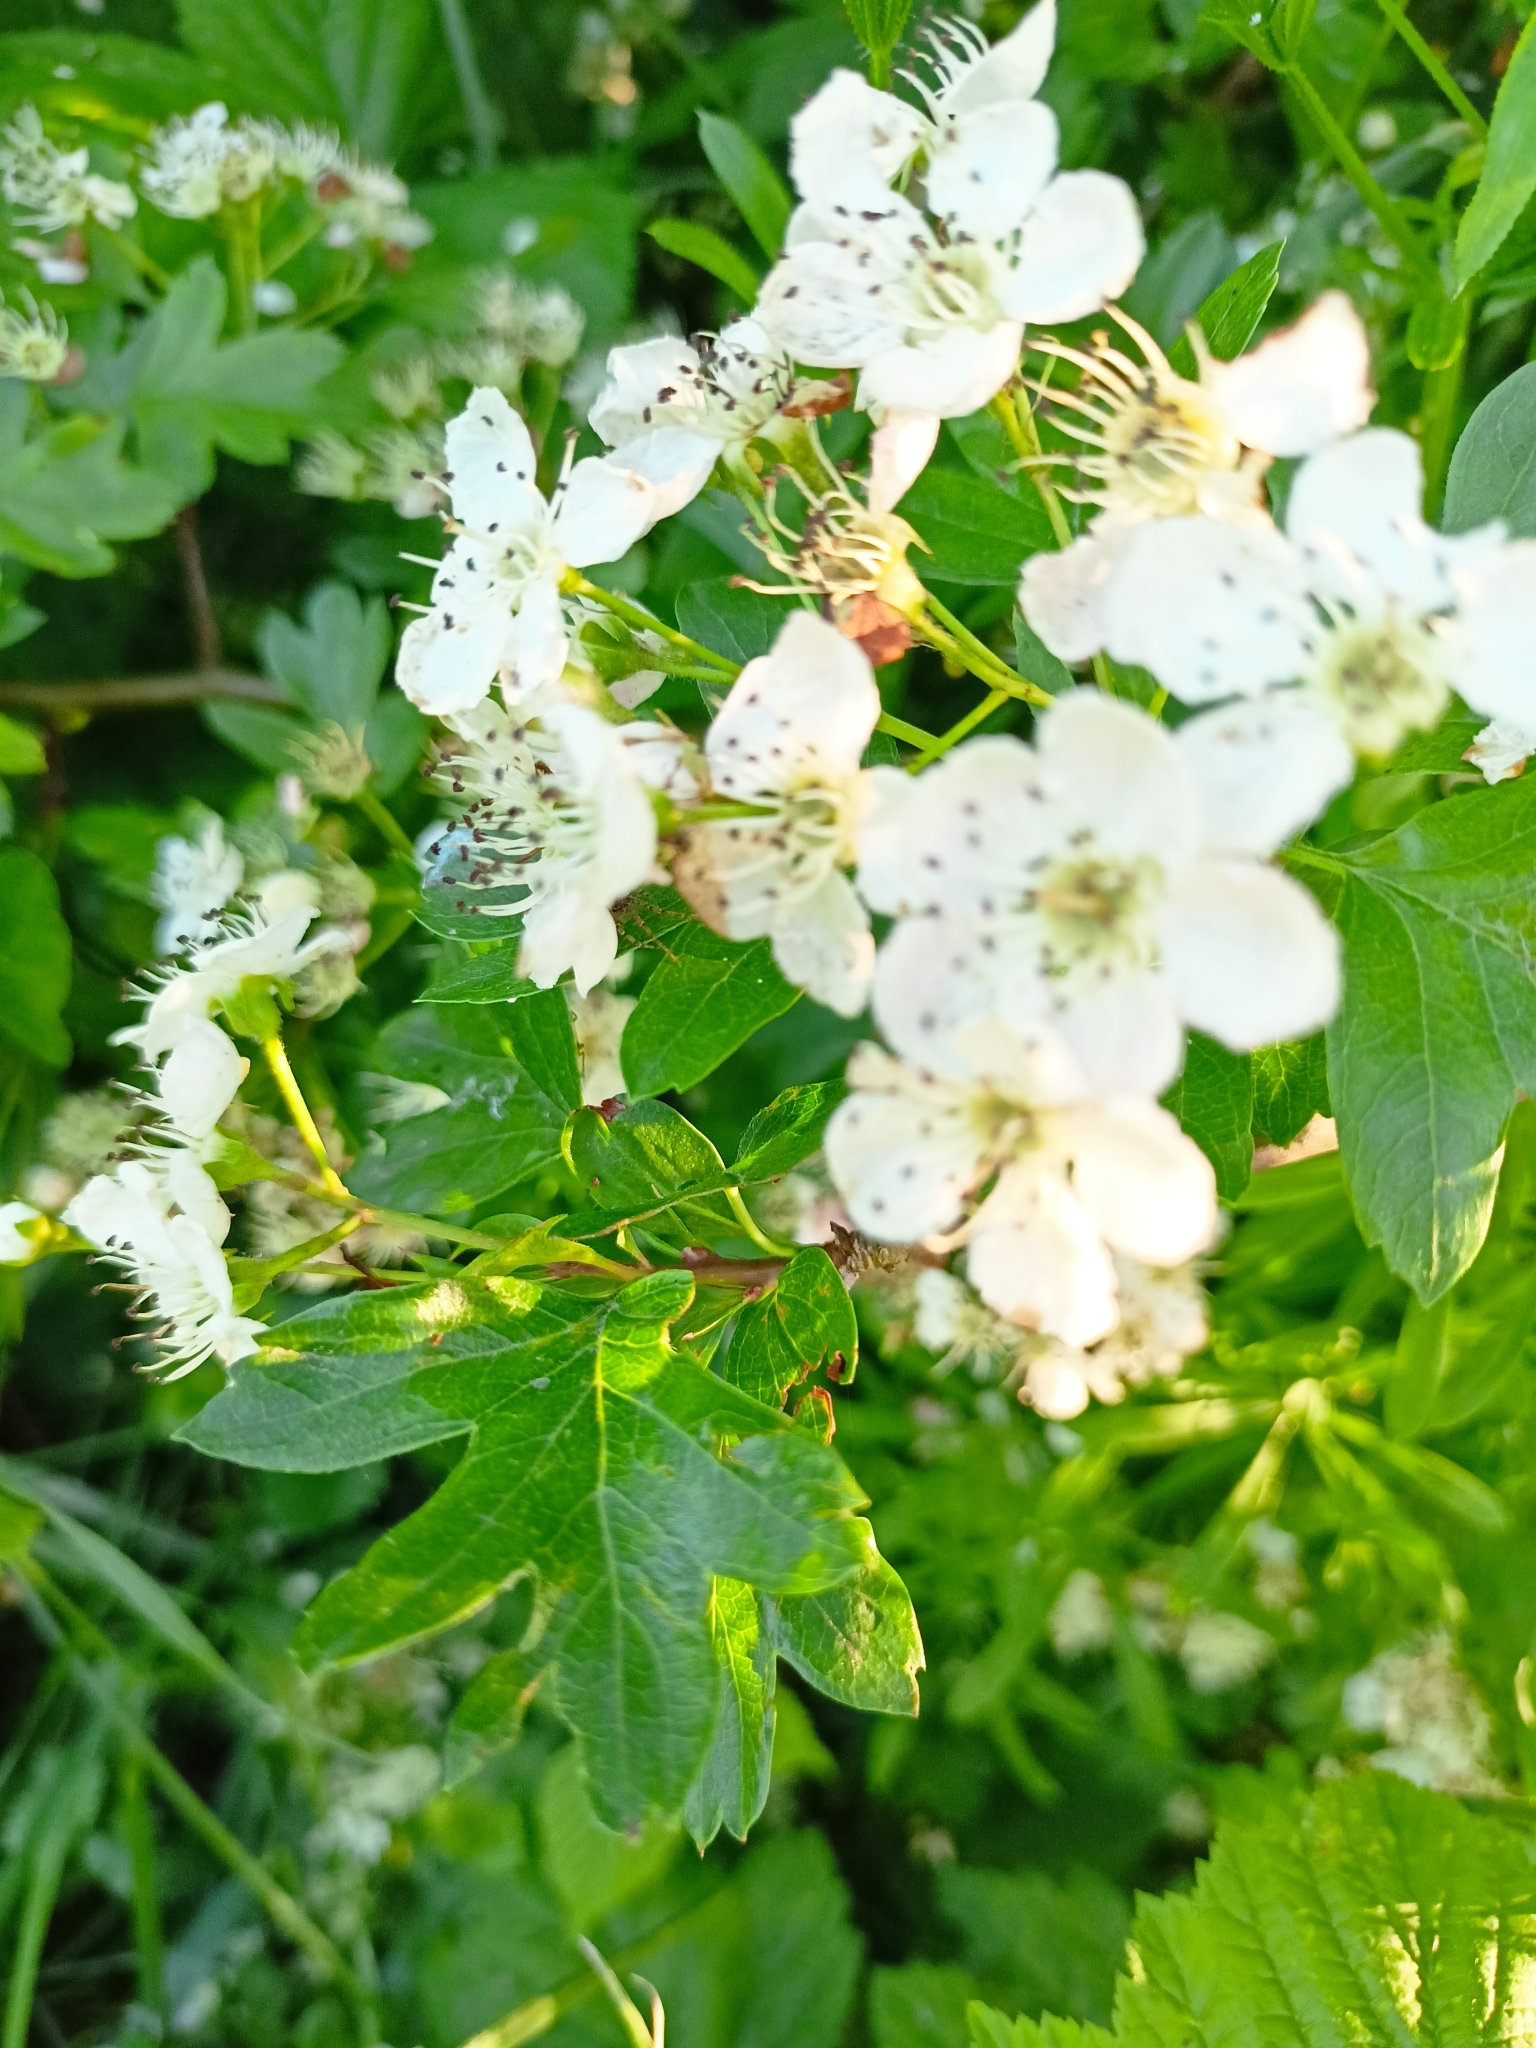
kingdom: Plantae
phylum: Tracheophyta
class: Magnoliopsida
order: Rosales
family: Rosaceae
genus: Crataegus
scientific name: Crataegus monogyna
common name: Hawthorn
